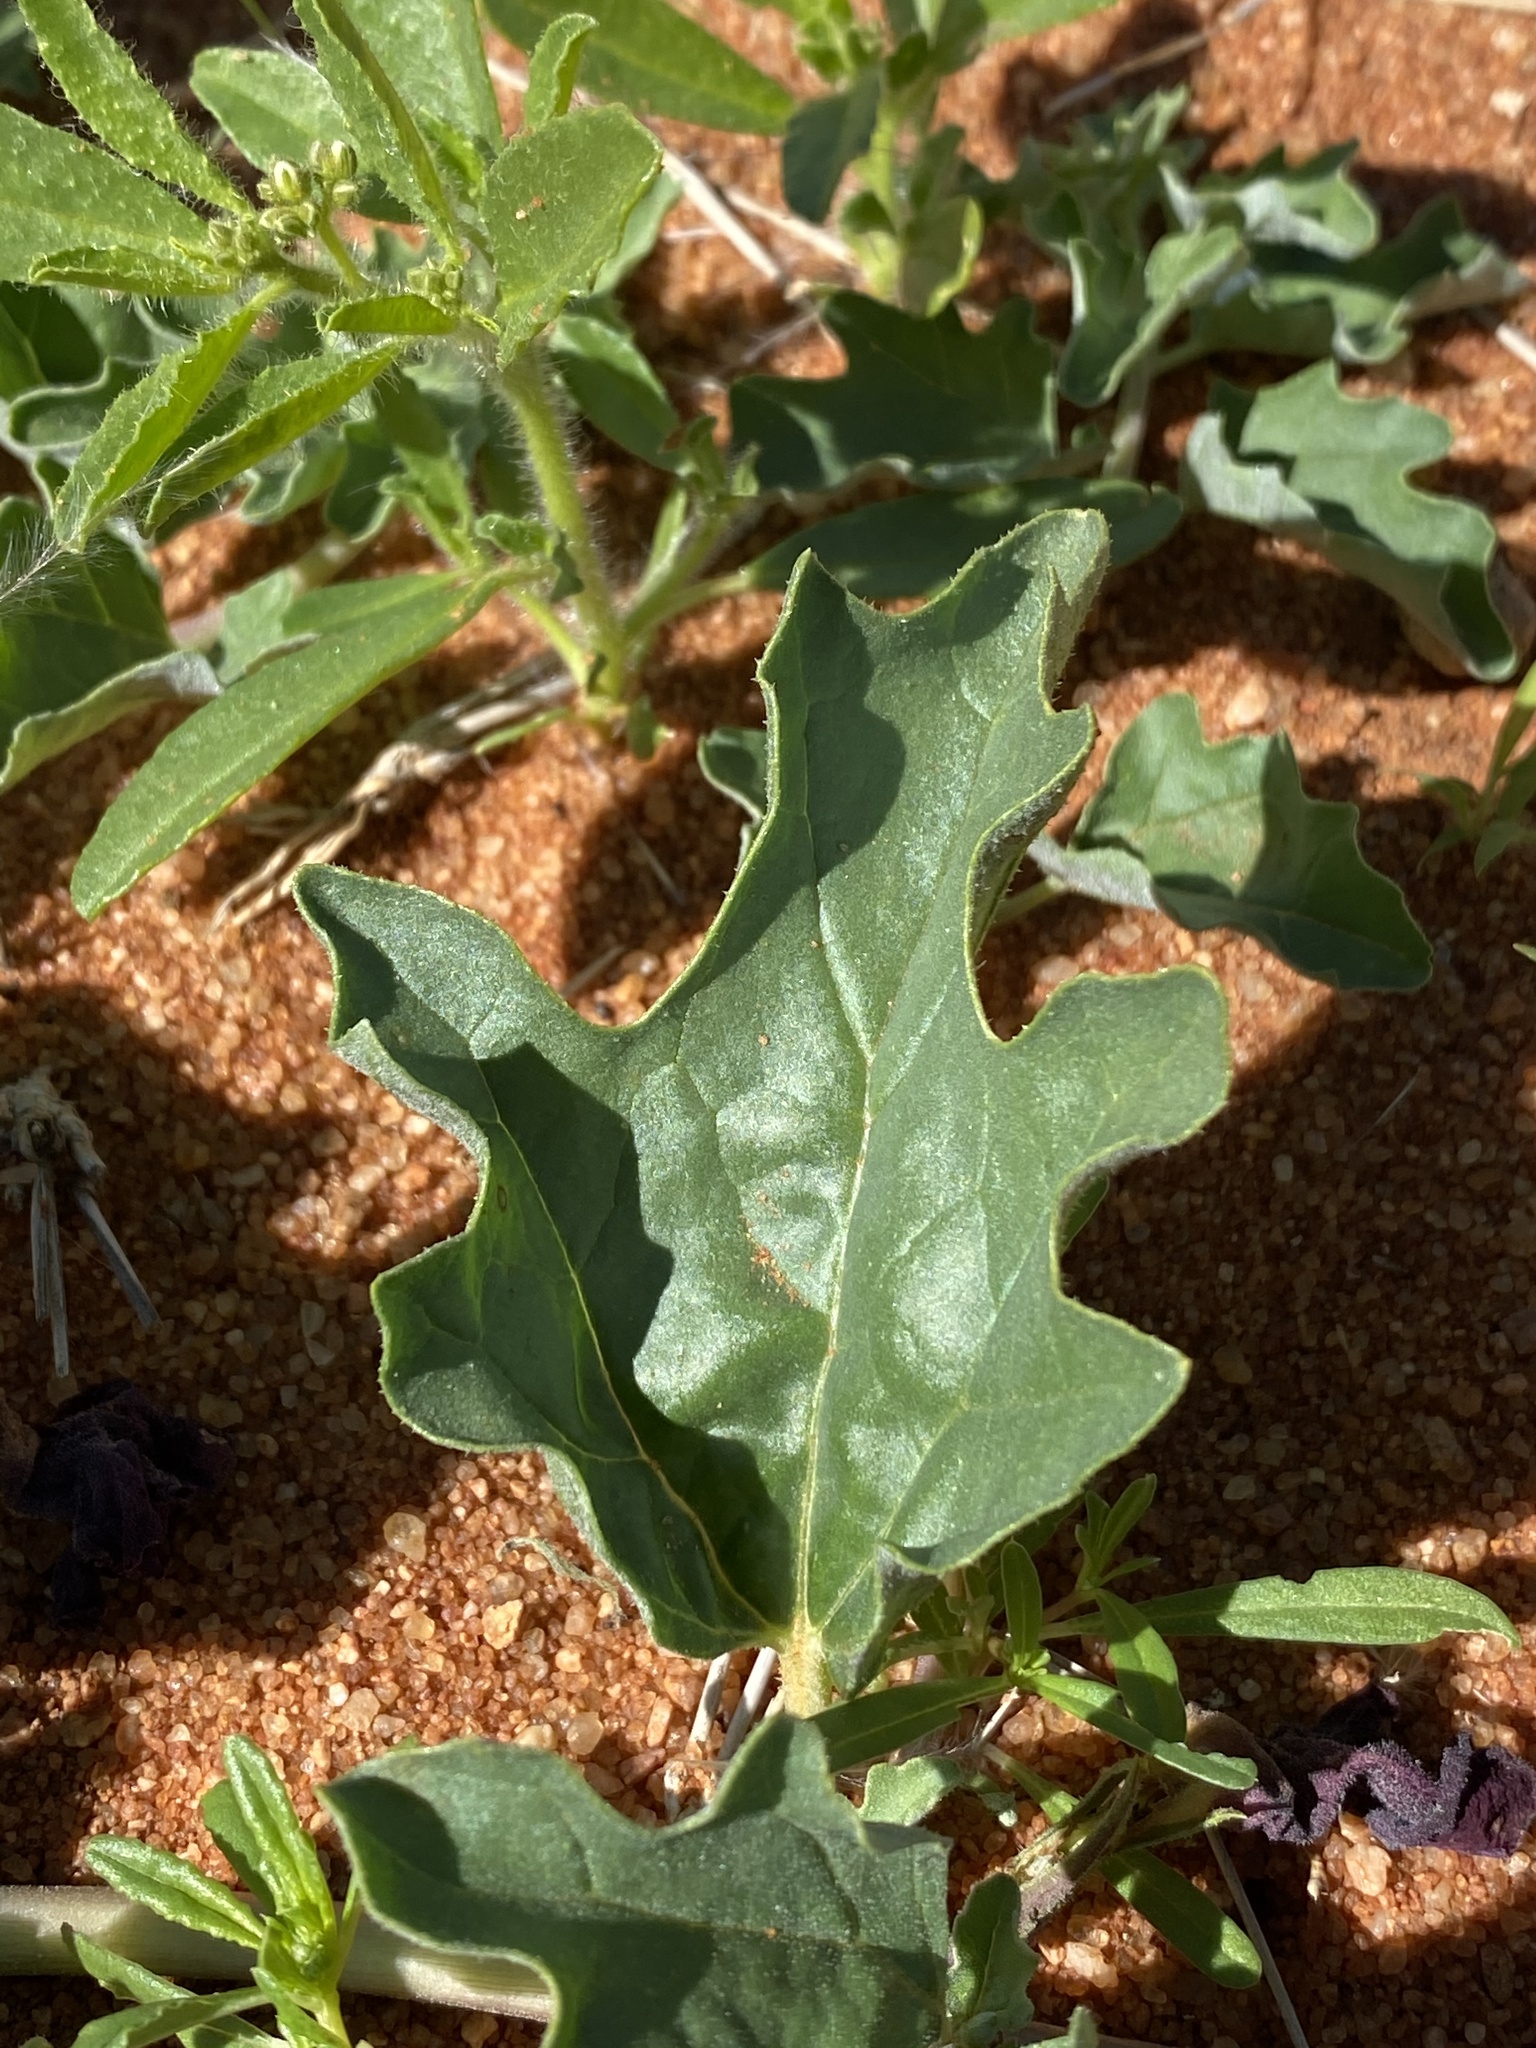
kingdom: Plantae
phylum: Tracheophyta
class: Magnoliopsida
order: Lamiales
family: Pedaliaceae
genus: Harpagophytum
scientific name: Harpagophytum procumbens
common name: Grappleplant
